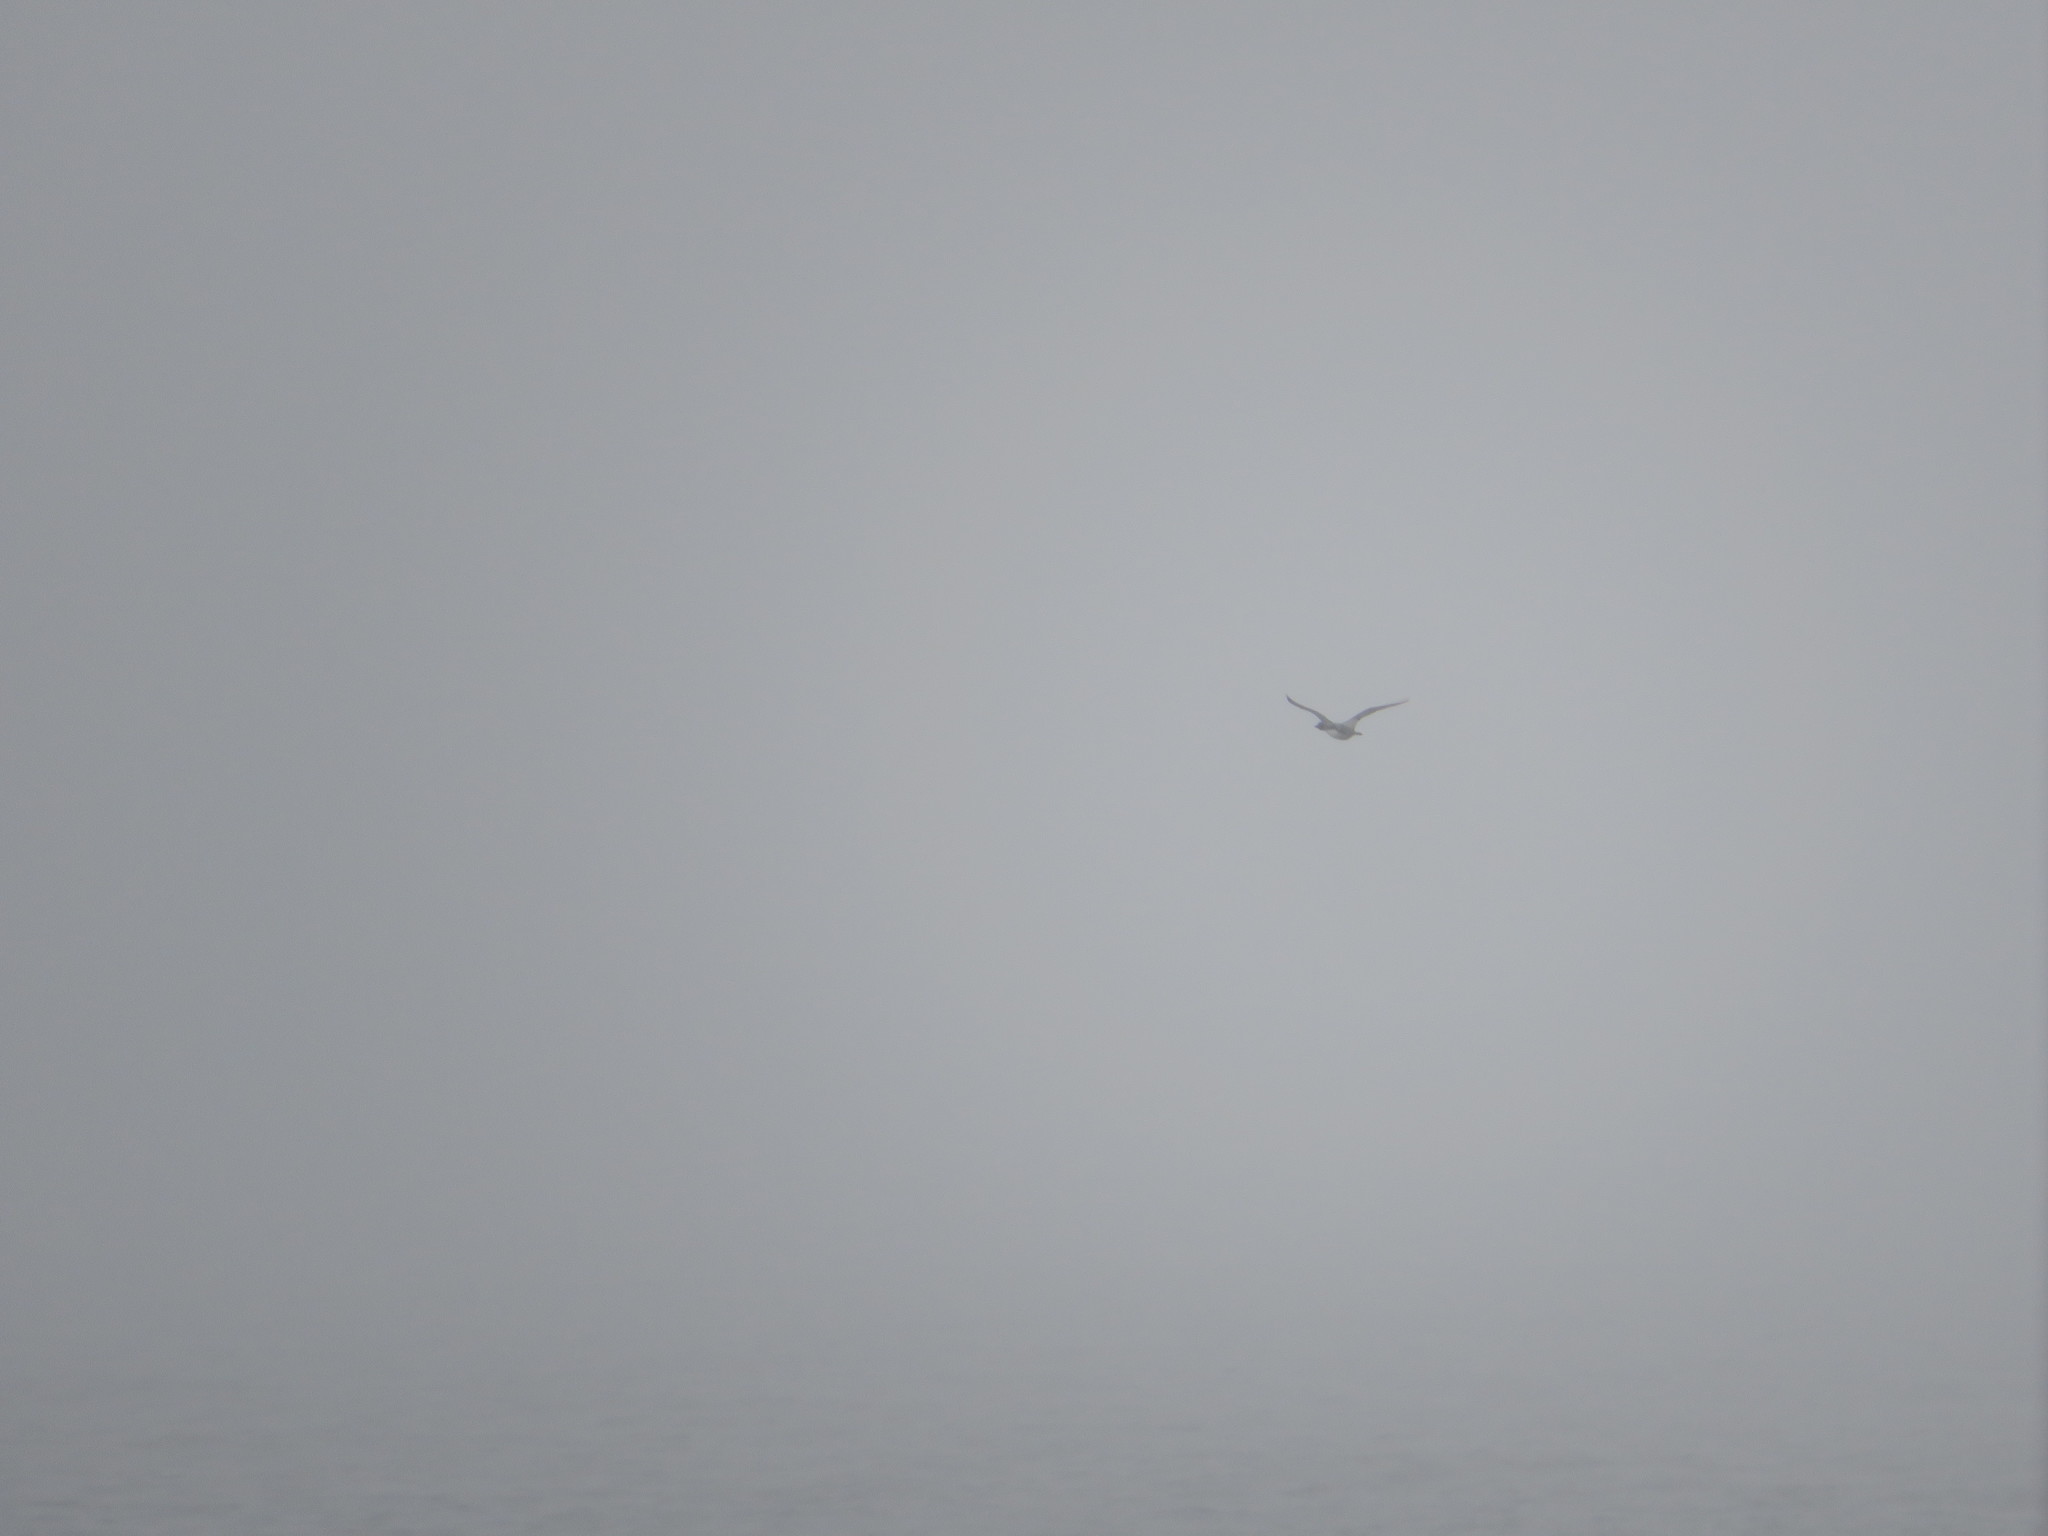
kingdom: Animalia
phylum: Chordata
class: Aves
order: Gaviiformes
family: Gaviidae
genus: Gavia
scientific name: Gavia immer
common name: Common loon
